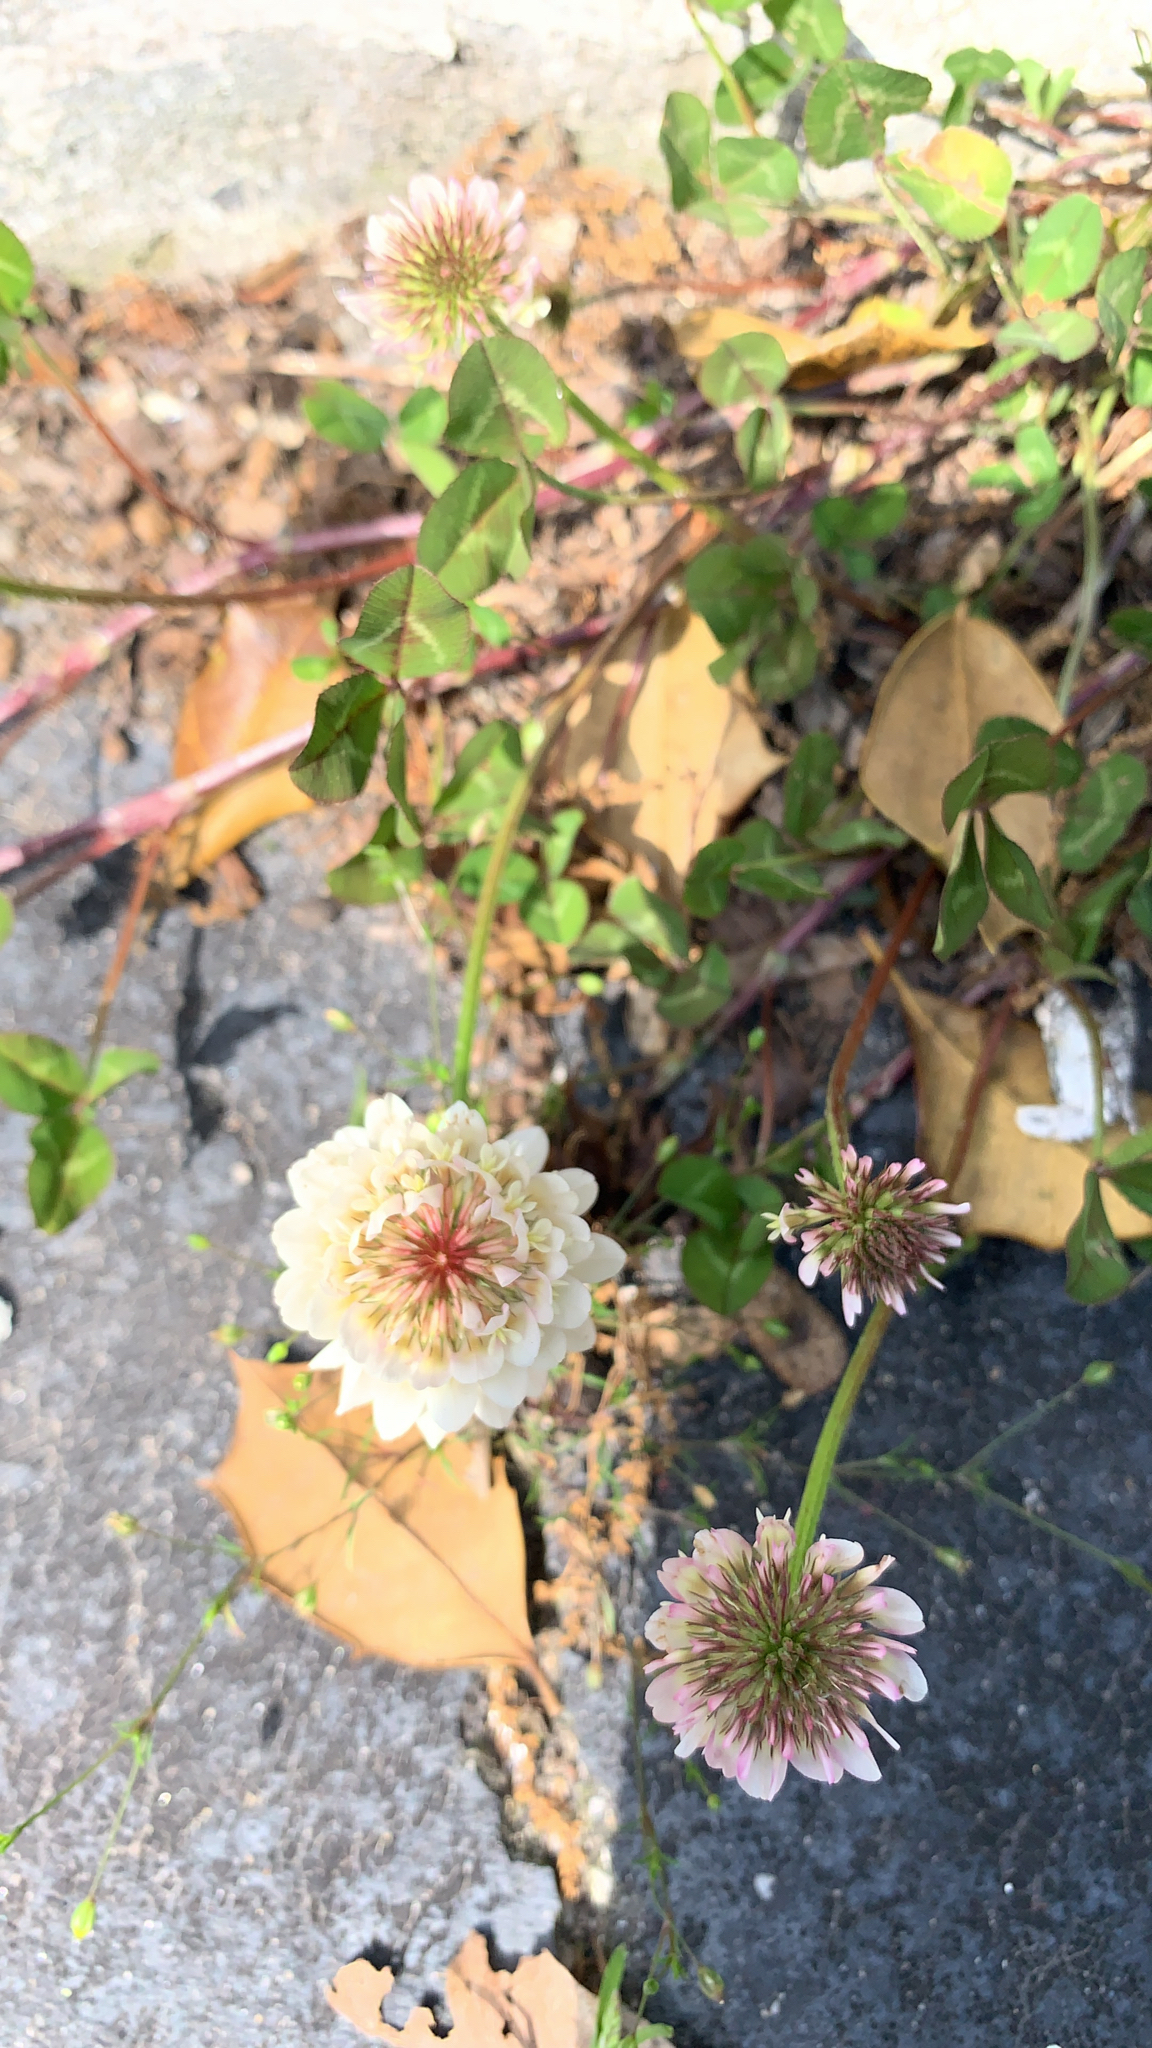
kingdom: Plantae
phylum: Tracheophyta
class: Magnoliopsida
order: Fabales
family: Fabaceae
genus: Trifolium
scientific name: Trifolium repens
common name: White clover
